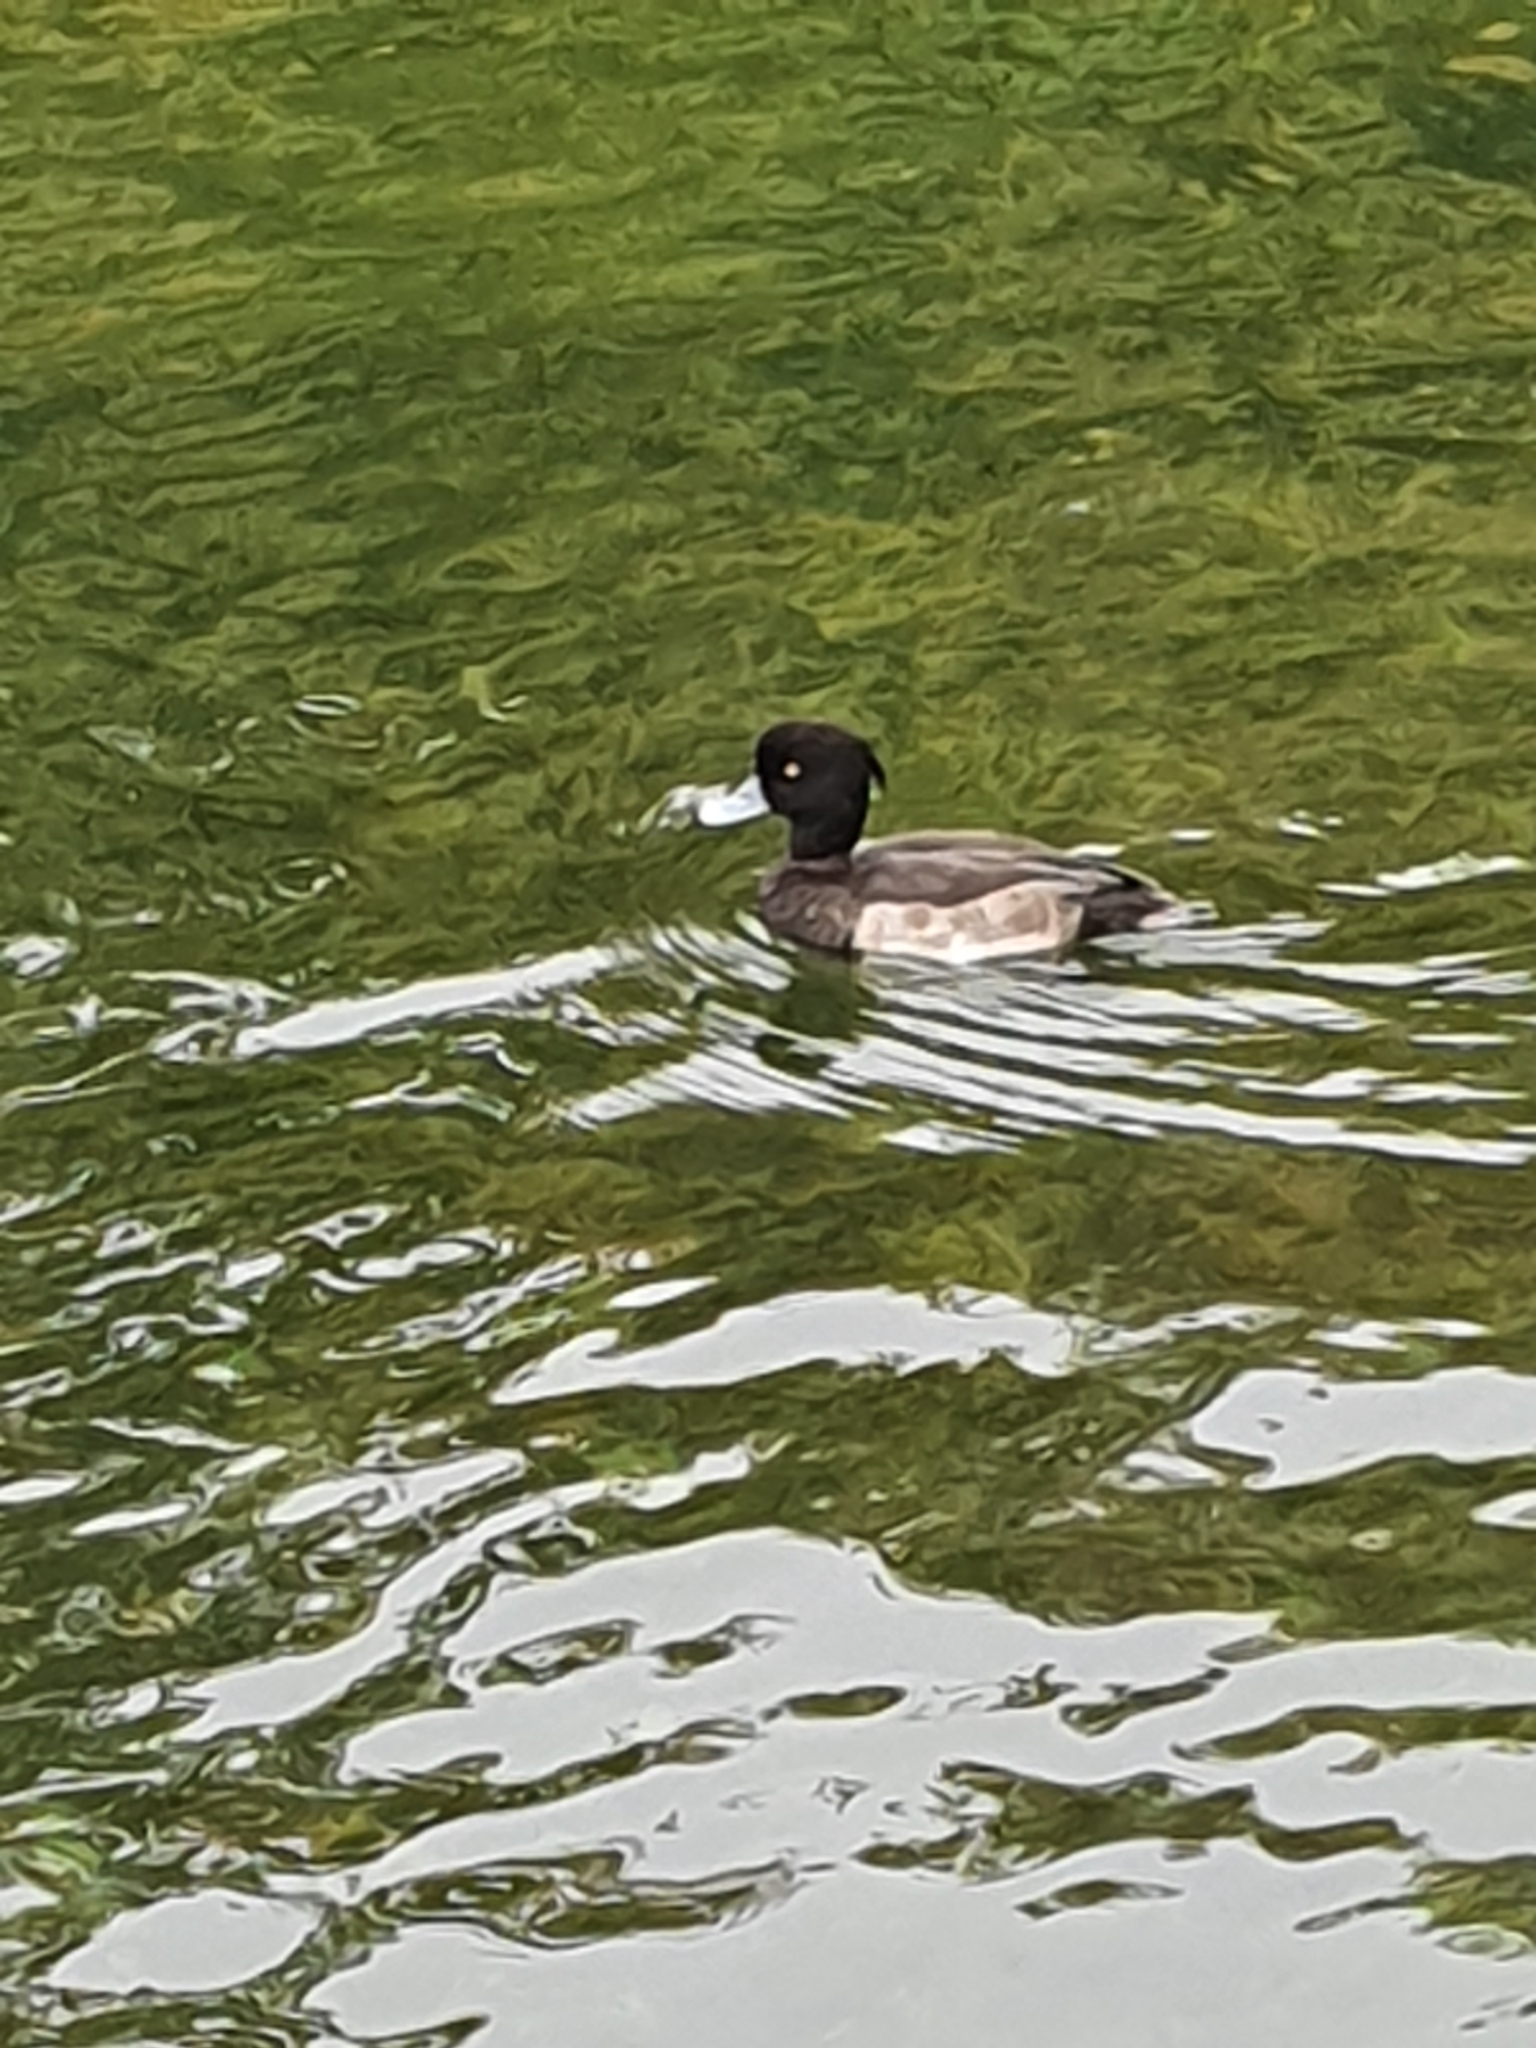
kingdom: Animalia
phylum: Chordata
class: Aves
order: Anseriformes
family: Anatidae
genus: Aythya
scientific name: Aythya fuligula
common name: Tufted duck
